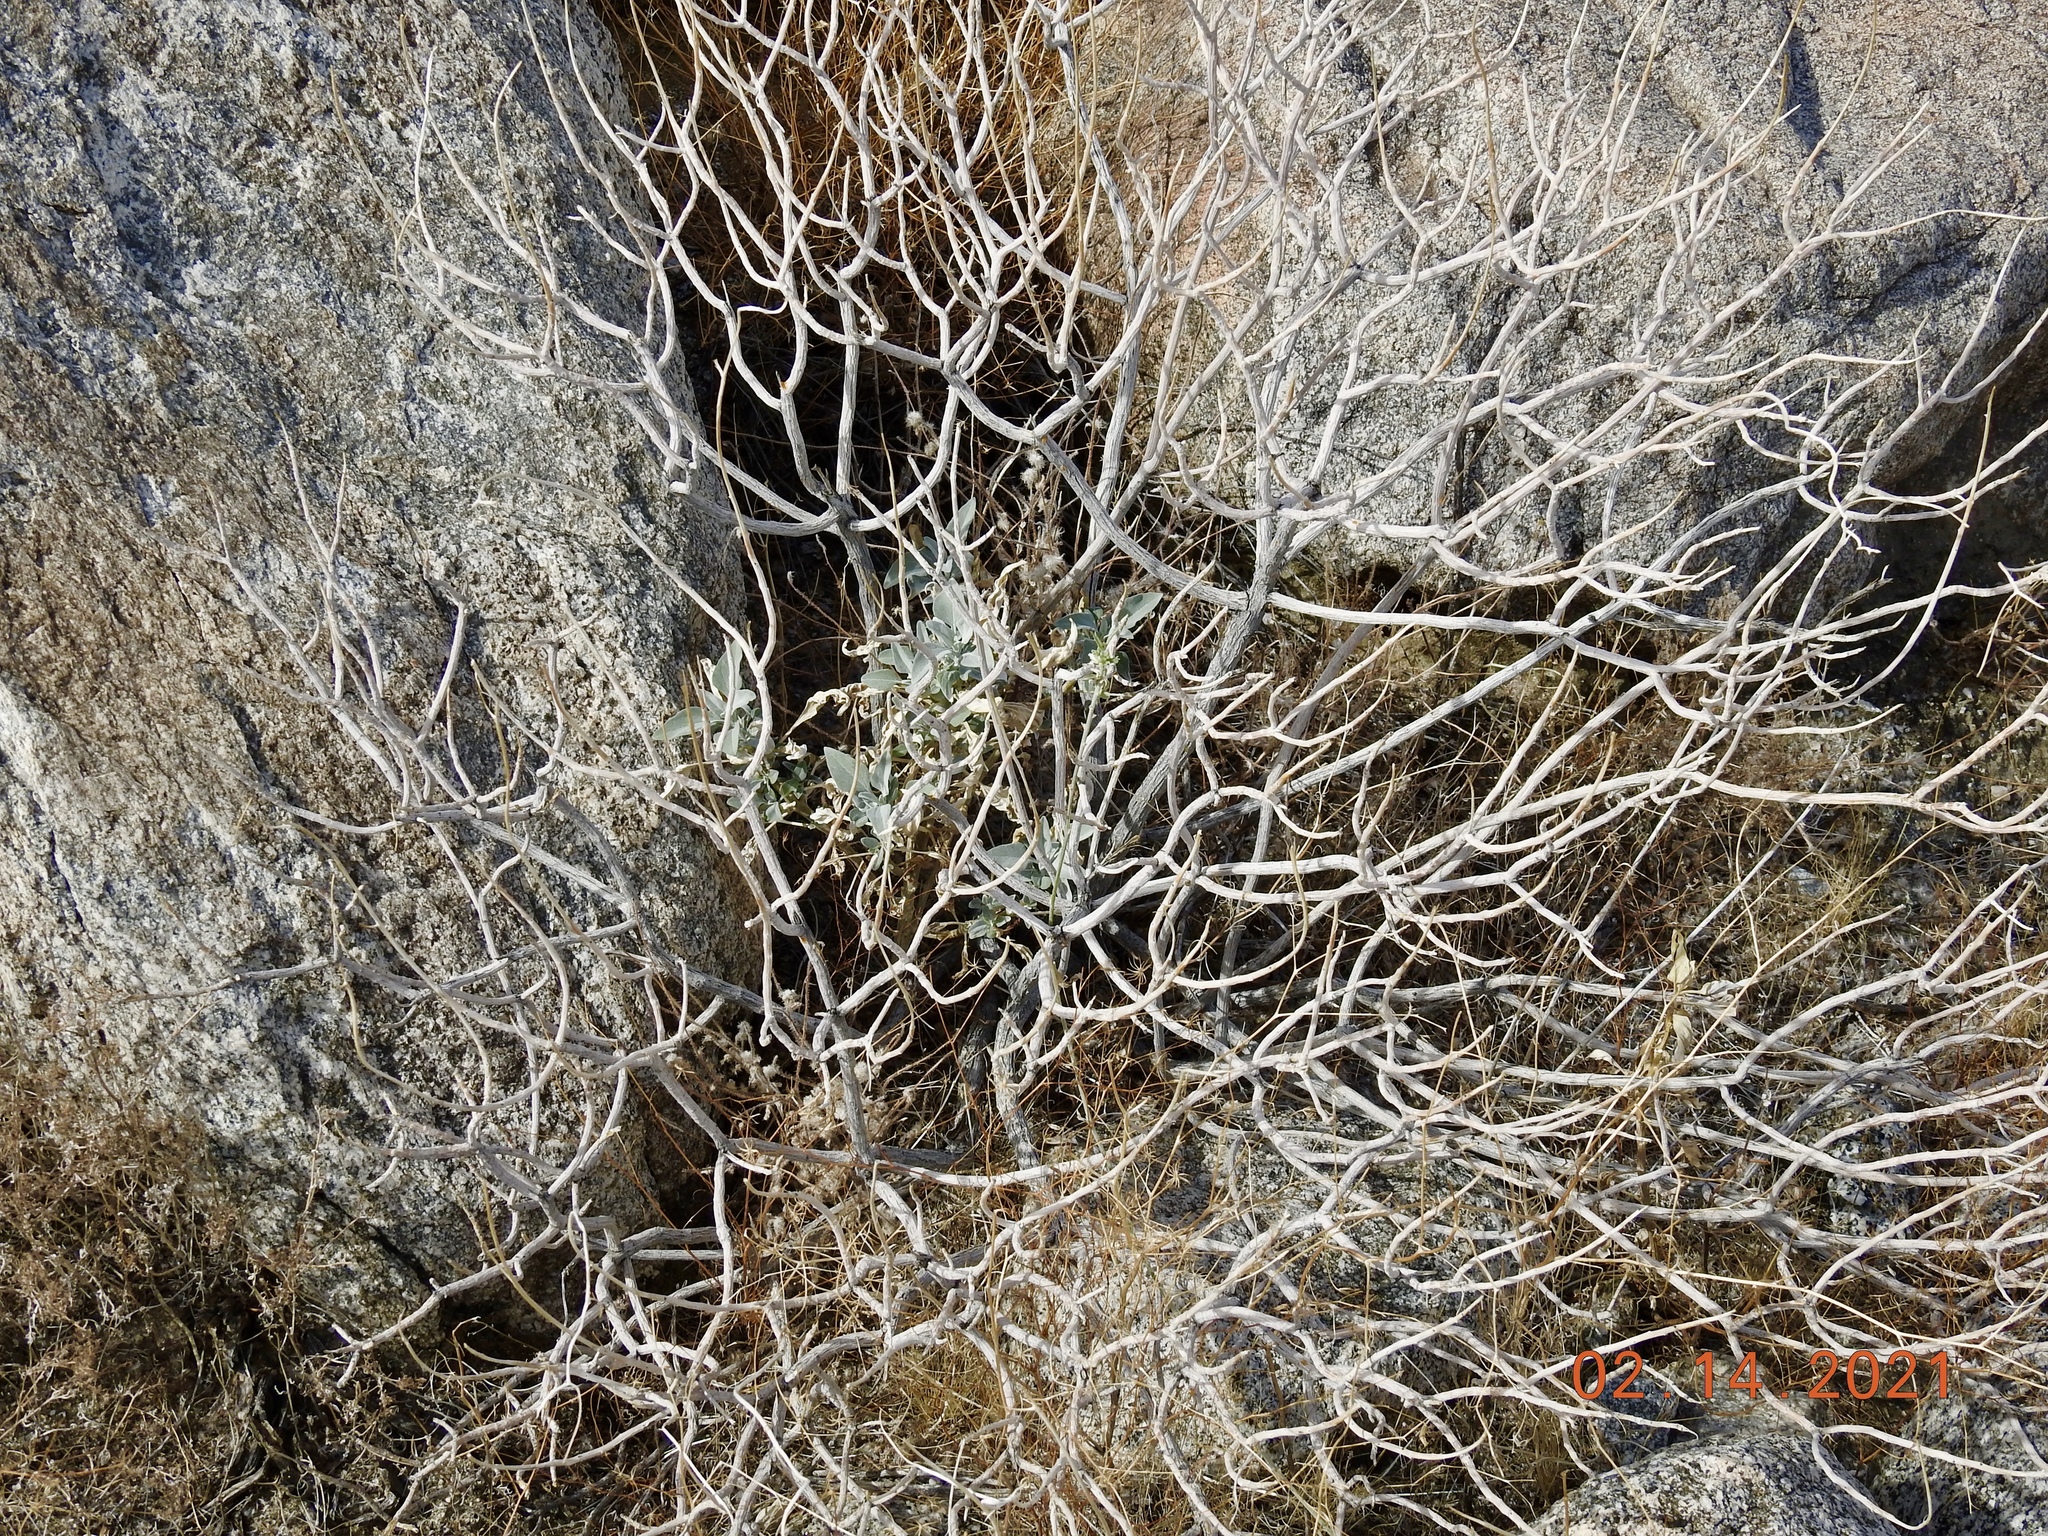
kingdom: Plantae
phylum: Tracheophyta
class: Magnoliopsida
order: Asterales
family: Asteraceae
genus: Encelia
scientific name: Encelia farinosa
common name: Brittlebush
